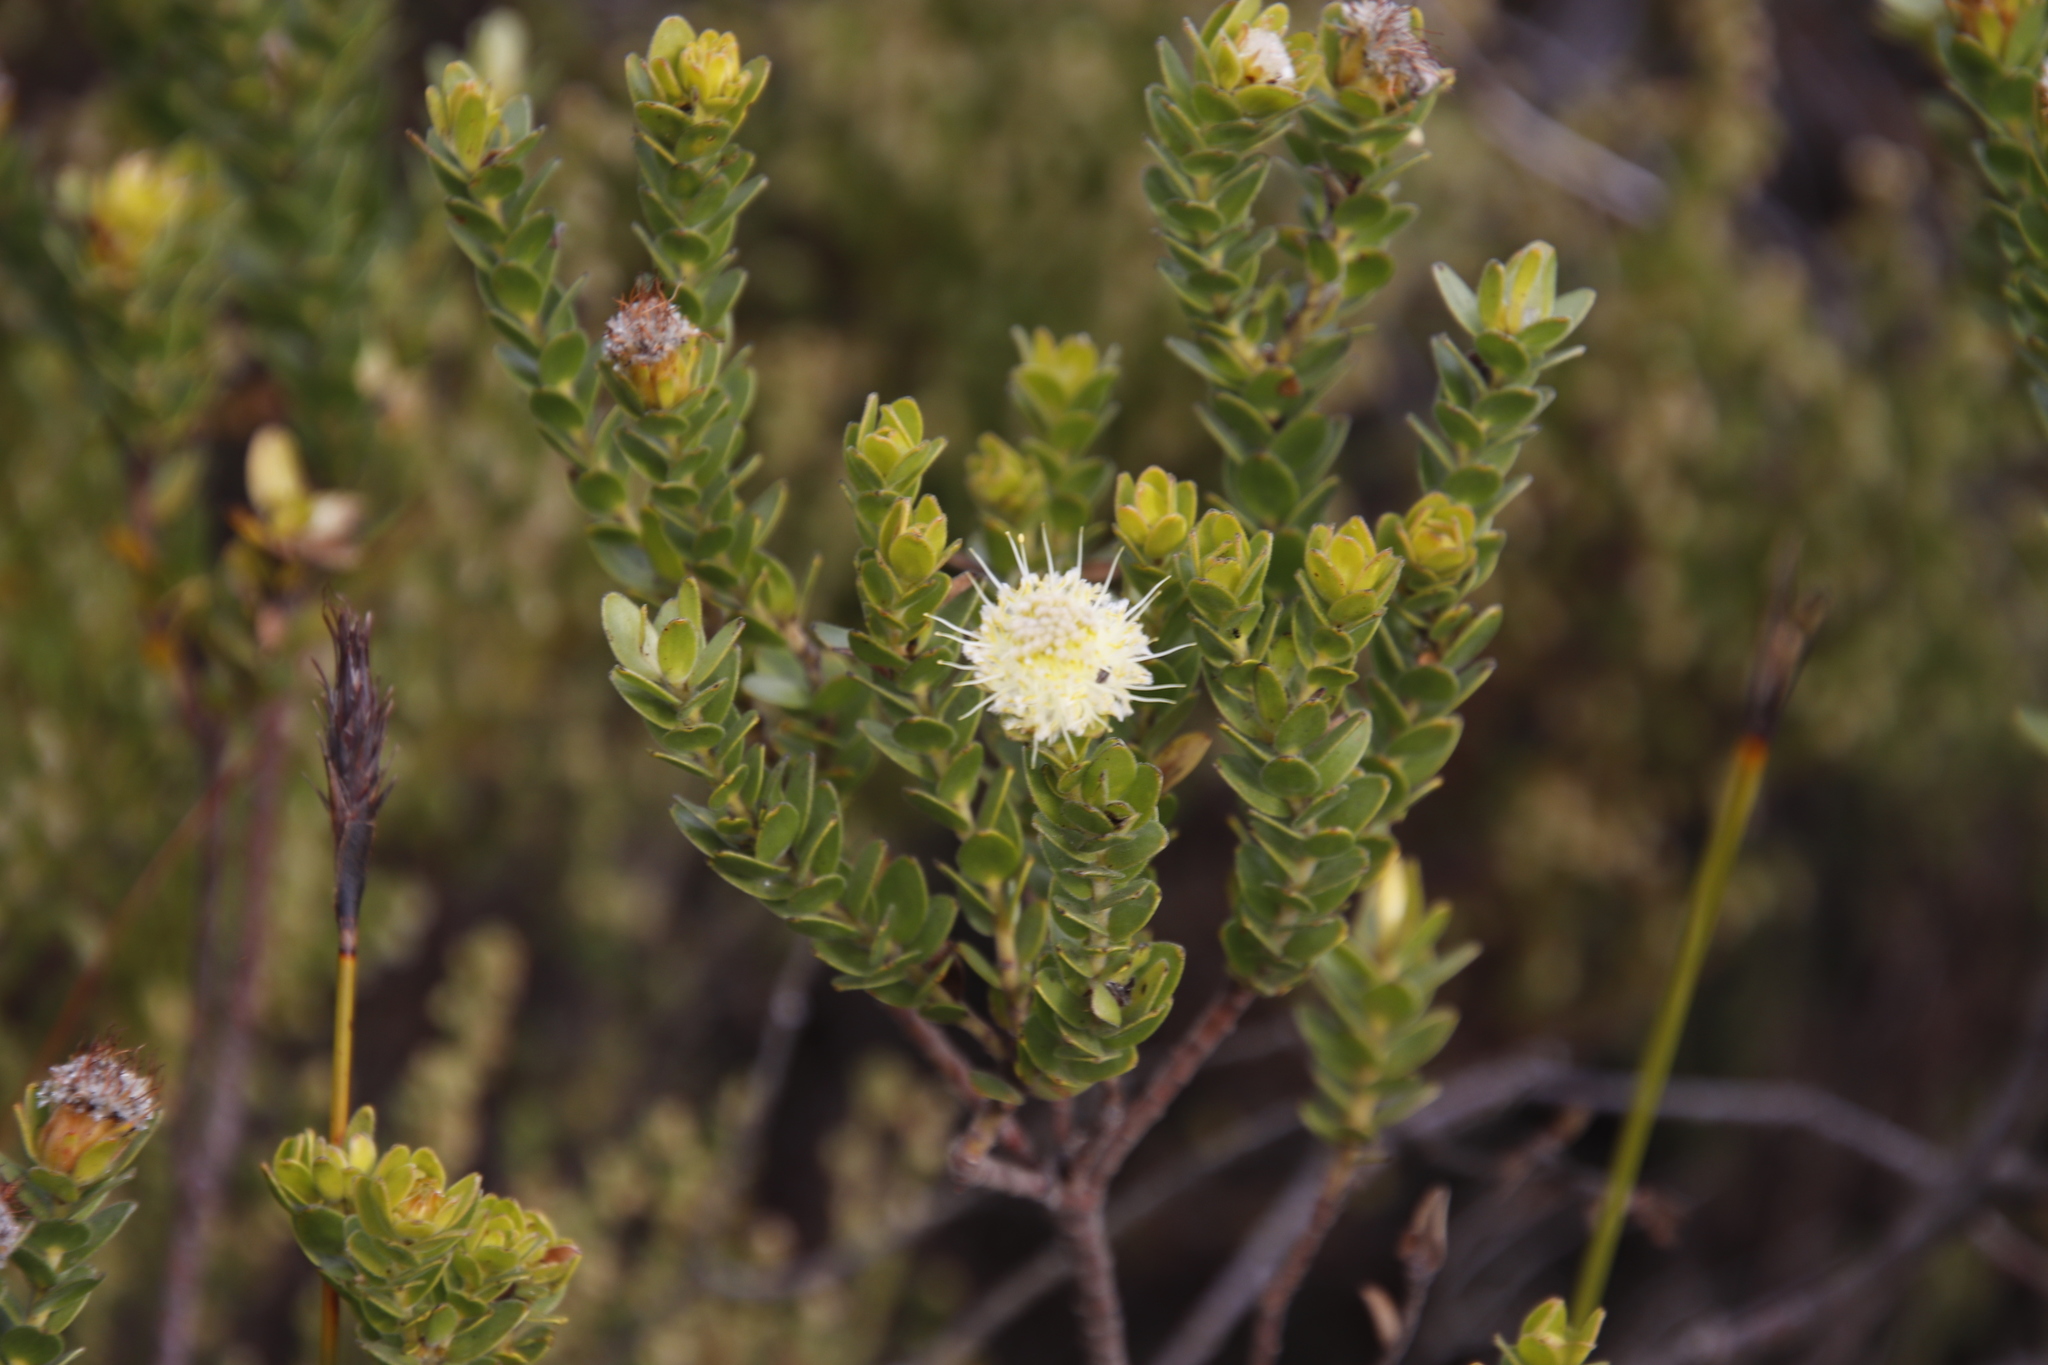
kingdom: Plantae
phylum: Tracheophyta
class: Magnoliopsida
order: Proteales
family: Proteaceae
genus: Diastella
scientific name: Diastella thymelaeoides
